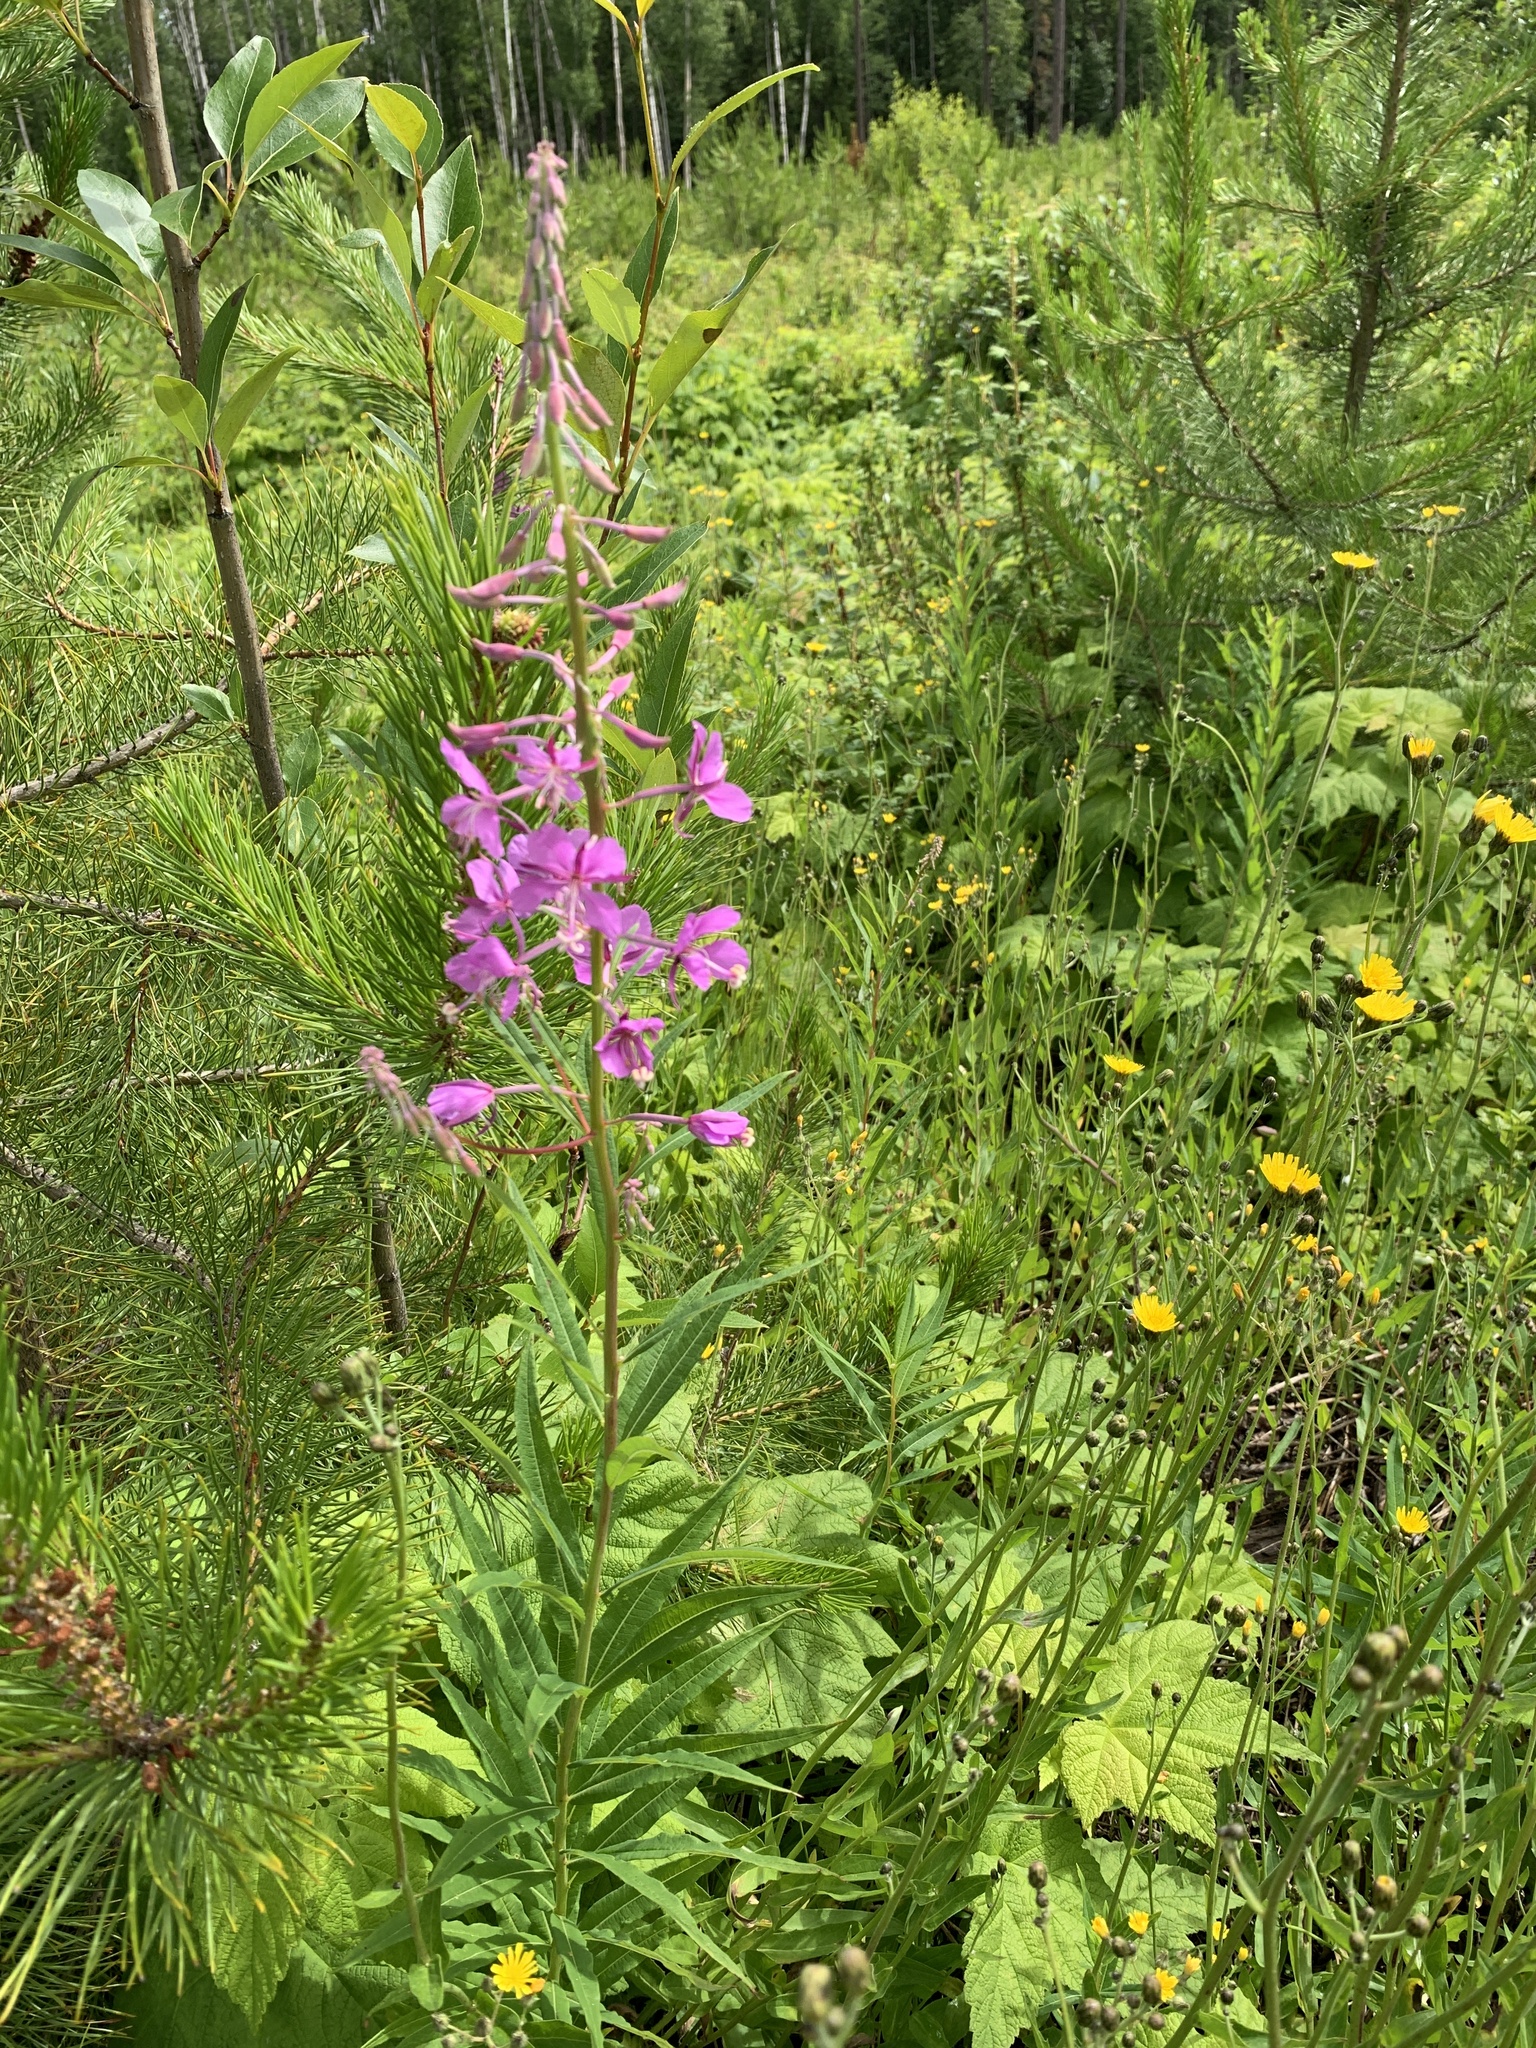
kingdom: Plantae
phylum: Tracheophyta
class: Magnoliopsida
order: Myrtales
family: Onagraceae
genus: Chamaenerion
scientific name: Chamaenerion angustifolium
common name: Fireweed
